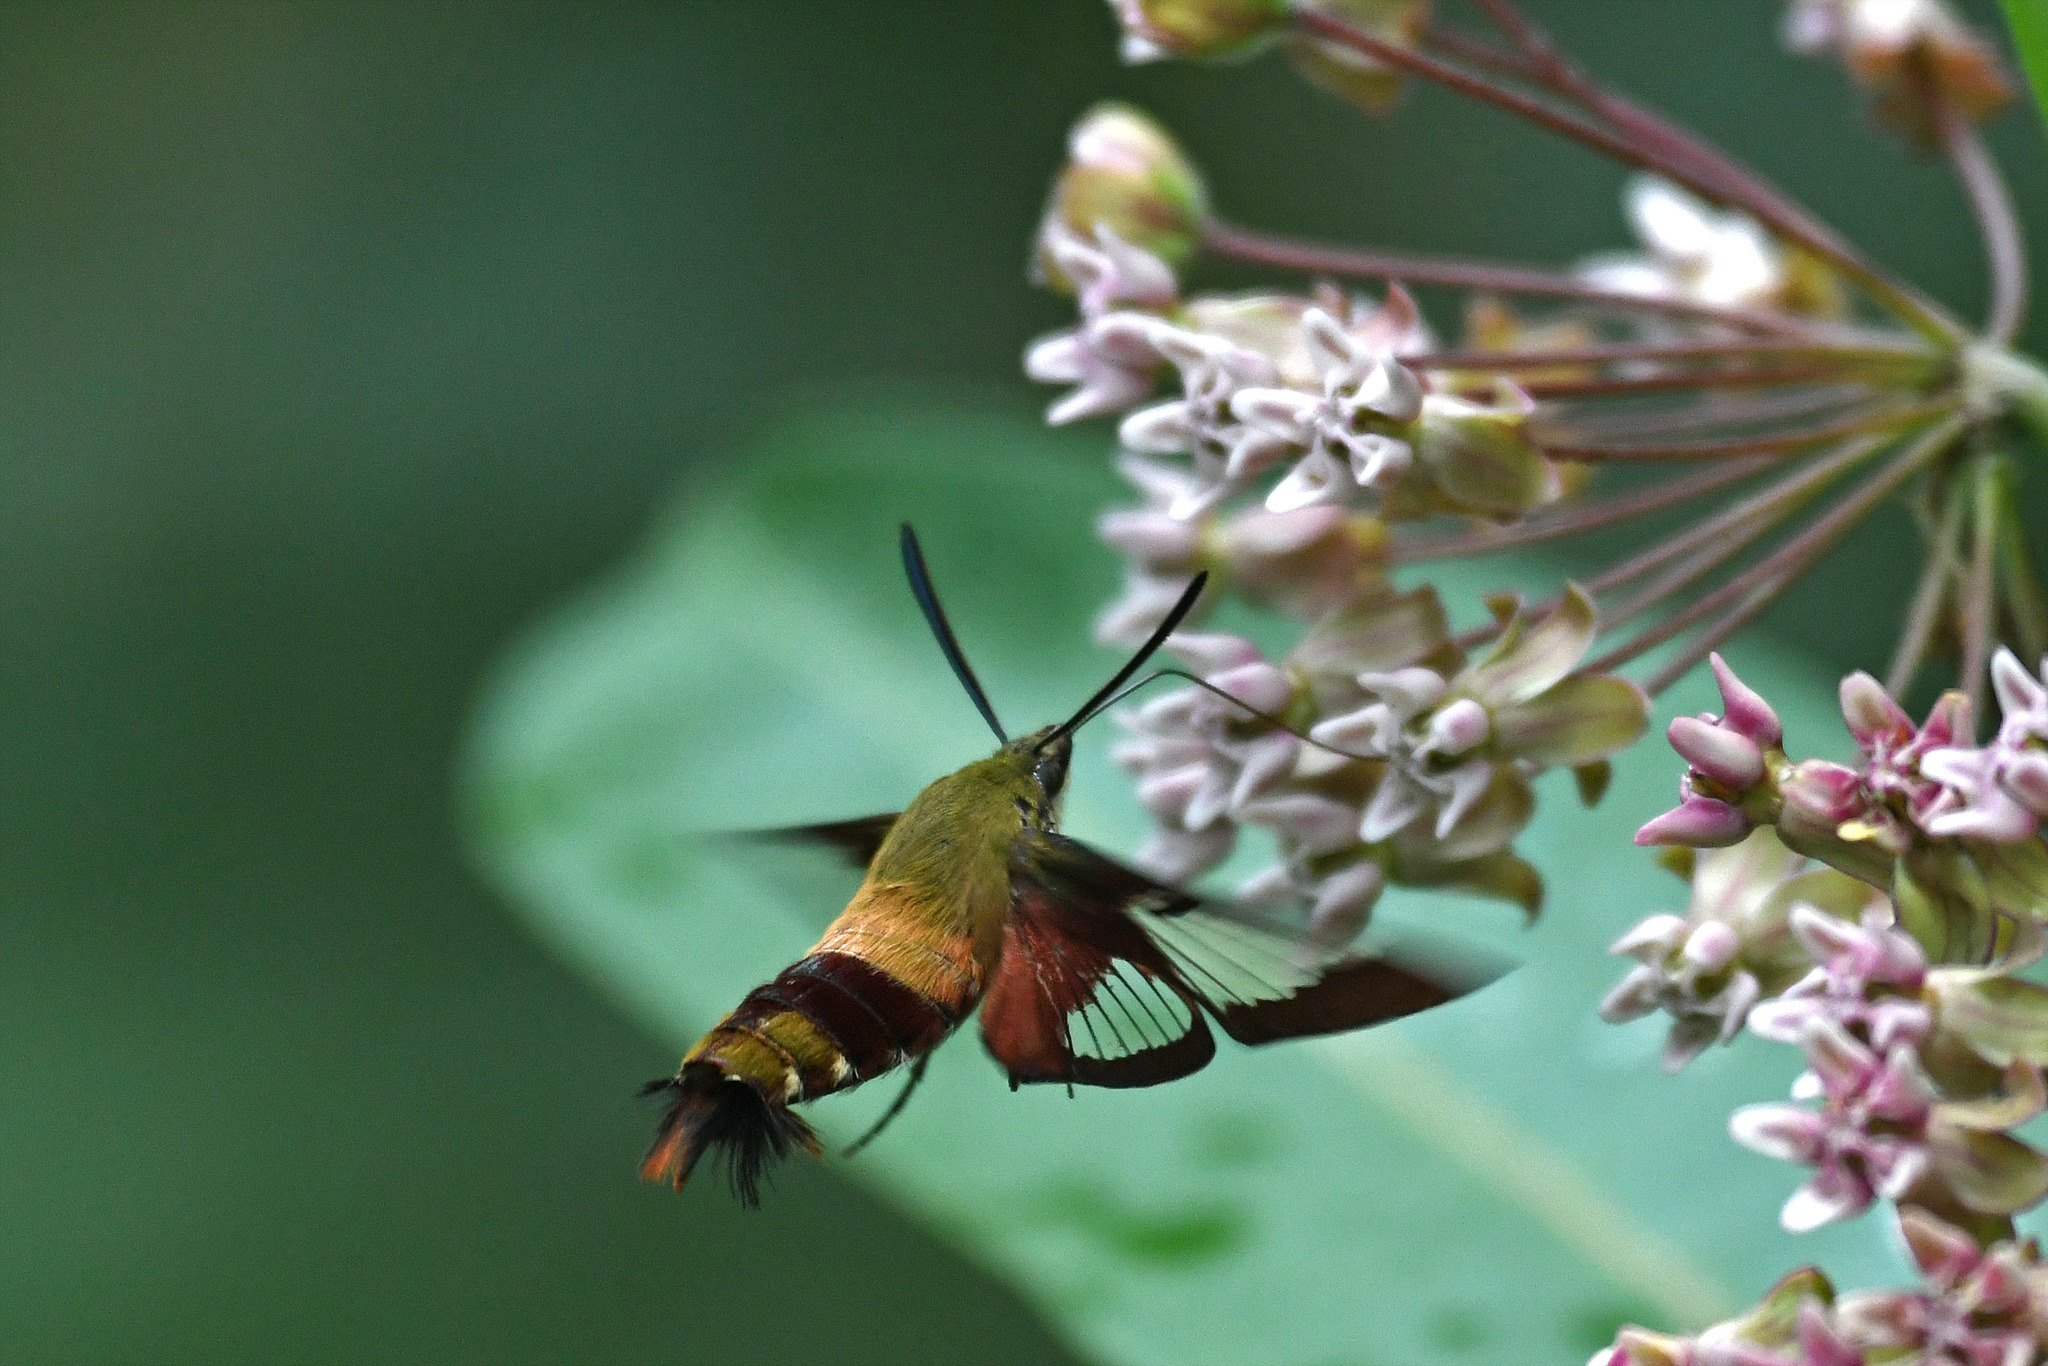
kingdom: Animalia
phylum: Arthropoda
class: Insecta
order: Lepidoptera
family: Sphingidae
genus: Hemaris
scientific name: Hemaris thysbe
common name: Common clear-wing
